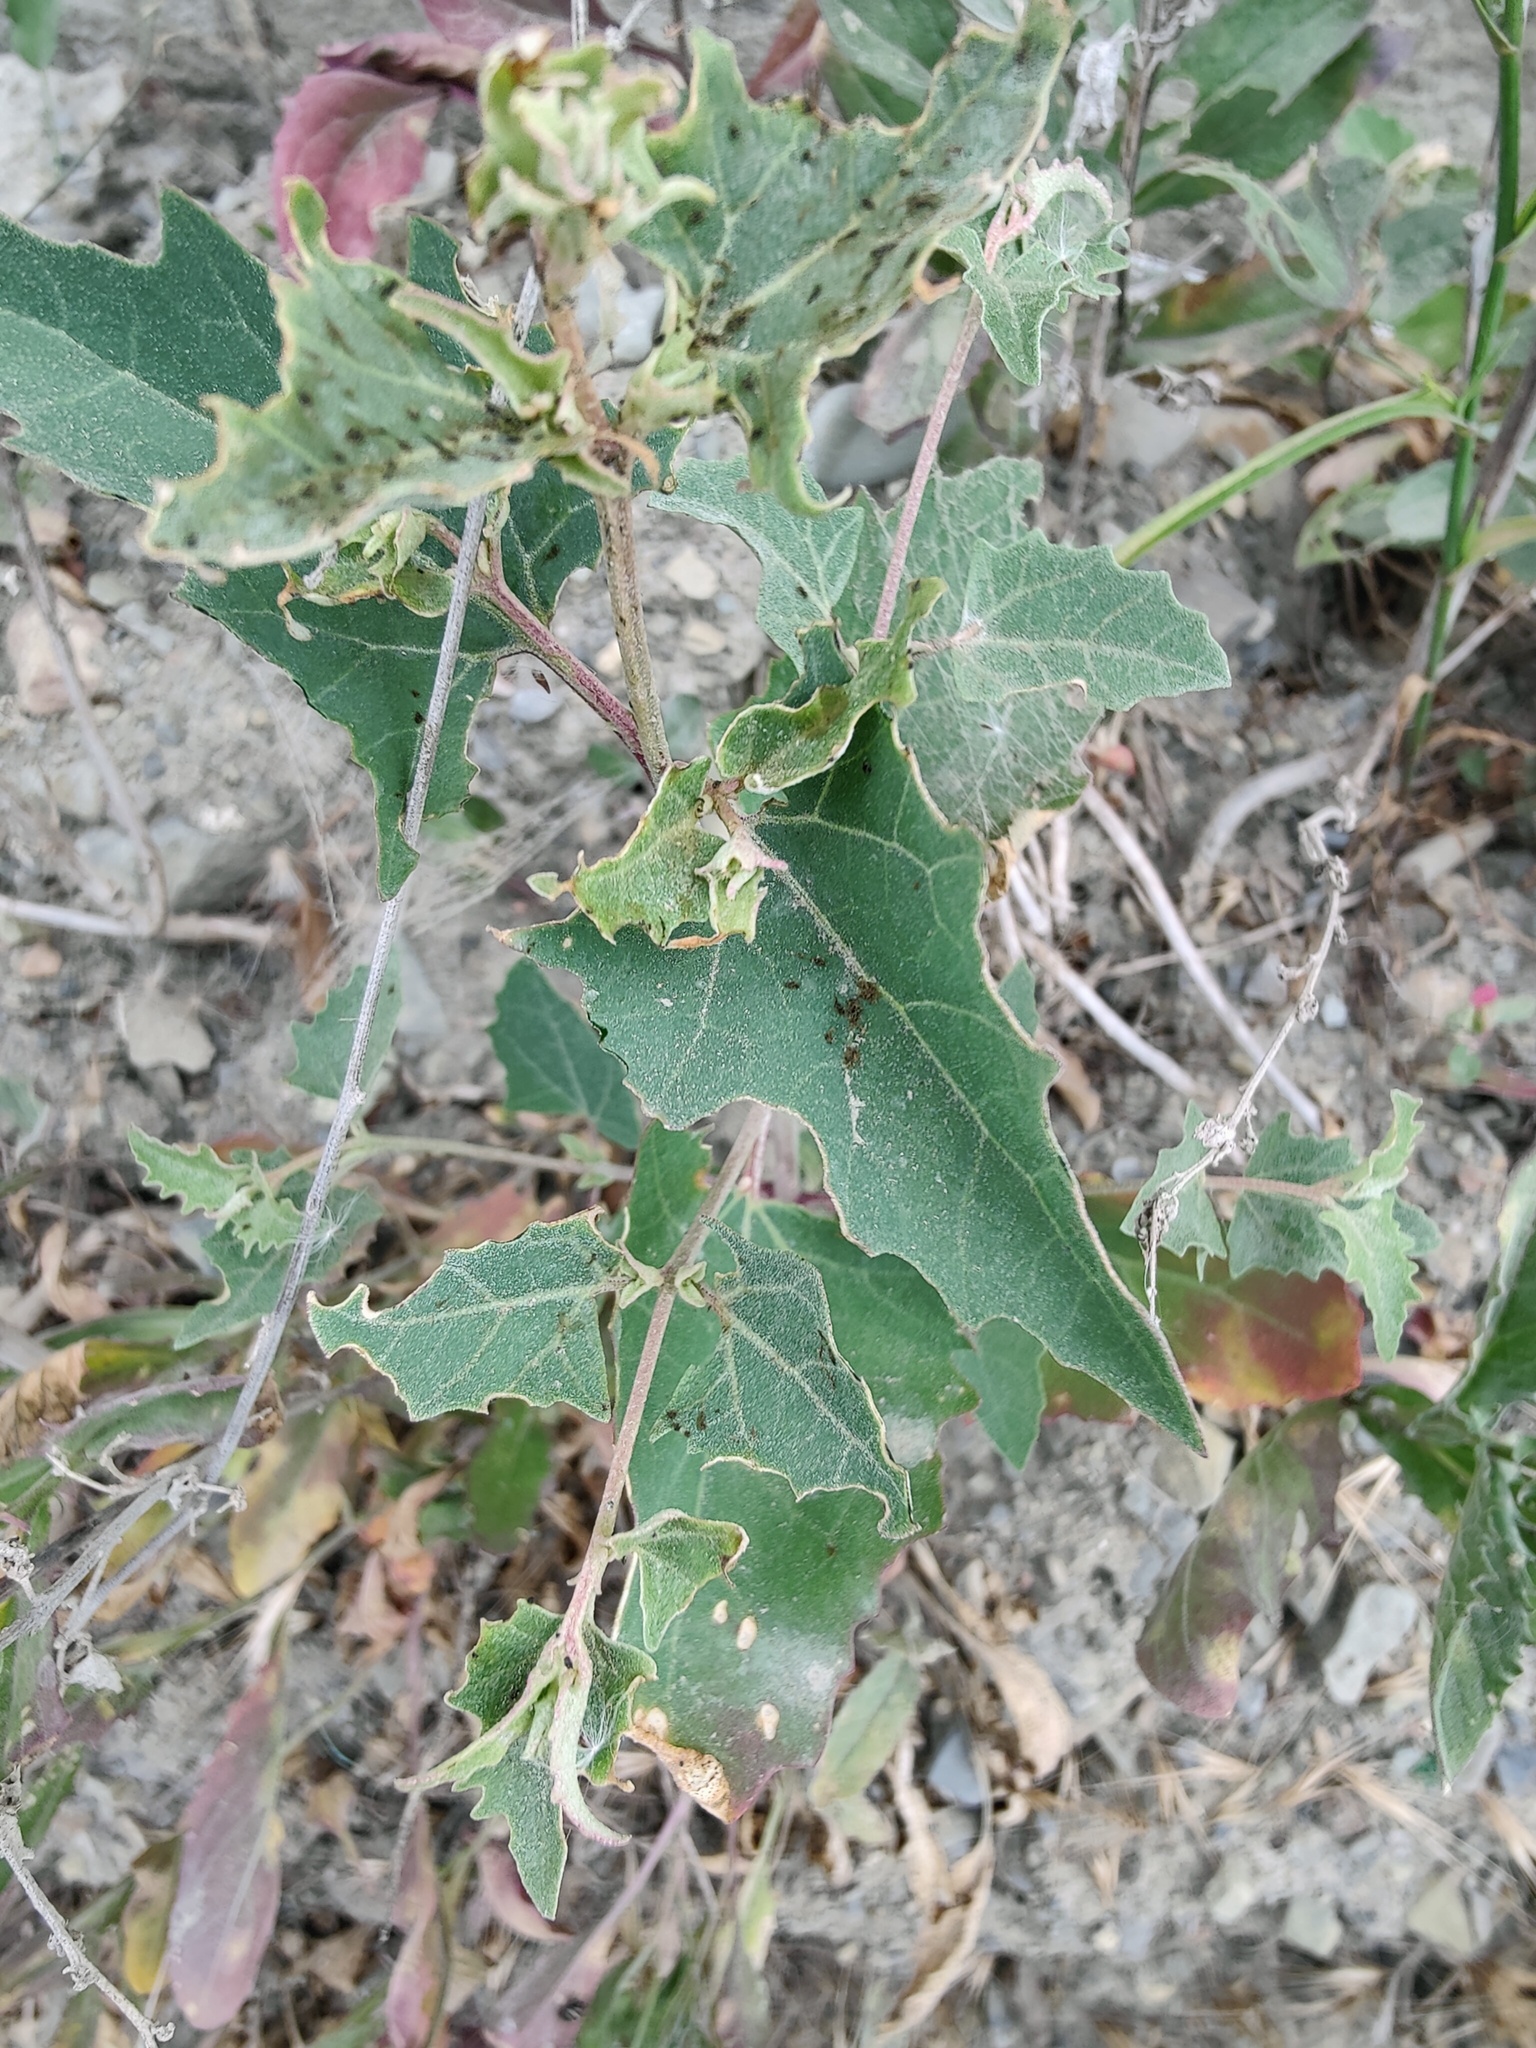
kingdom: Plantae
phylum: Tracheophyta
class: Magnoliopsida
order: Caryophyllales
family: Amaranthaceae
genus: Atriplex
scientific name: Atriplex sagittata
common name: Purple orache
